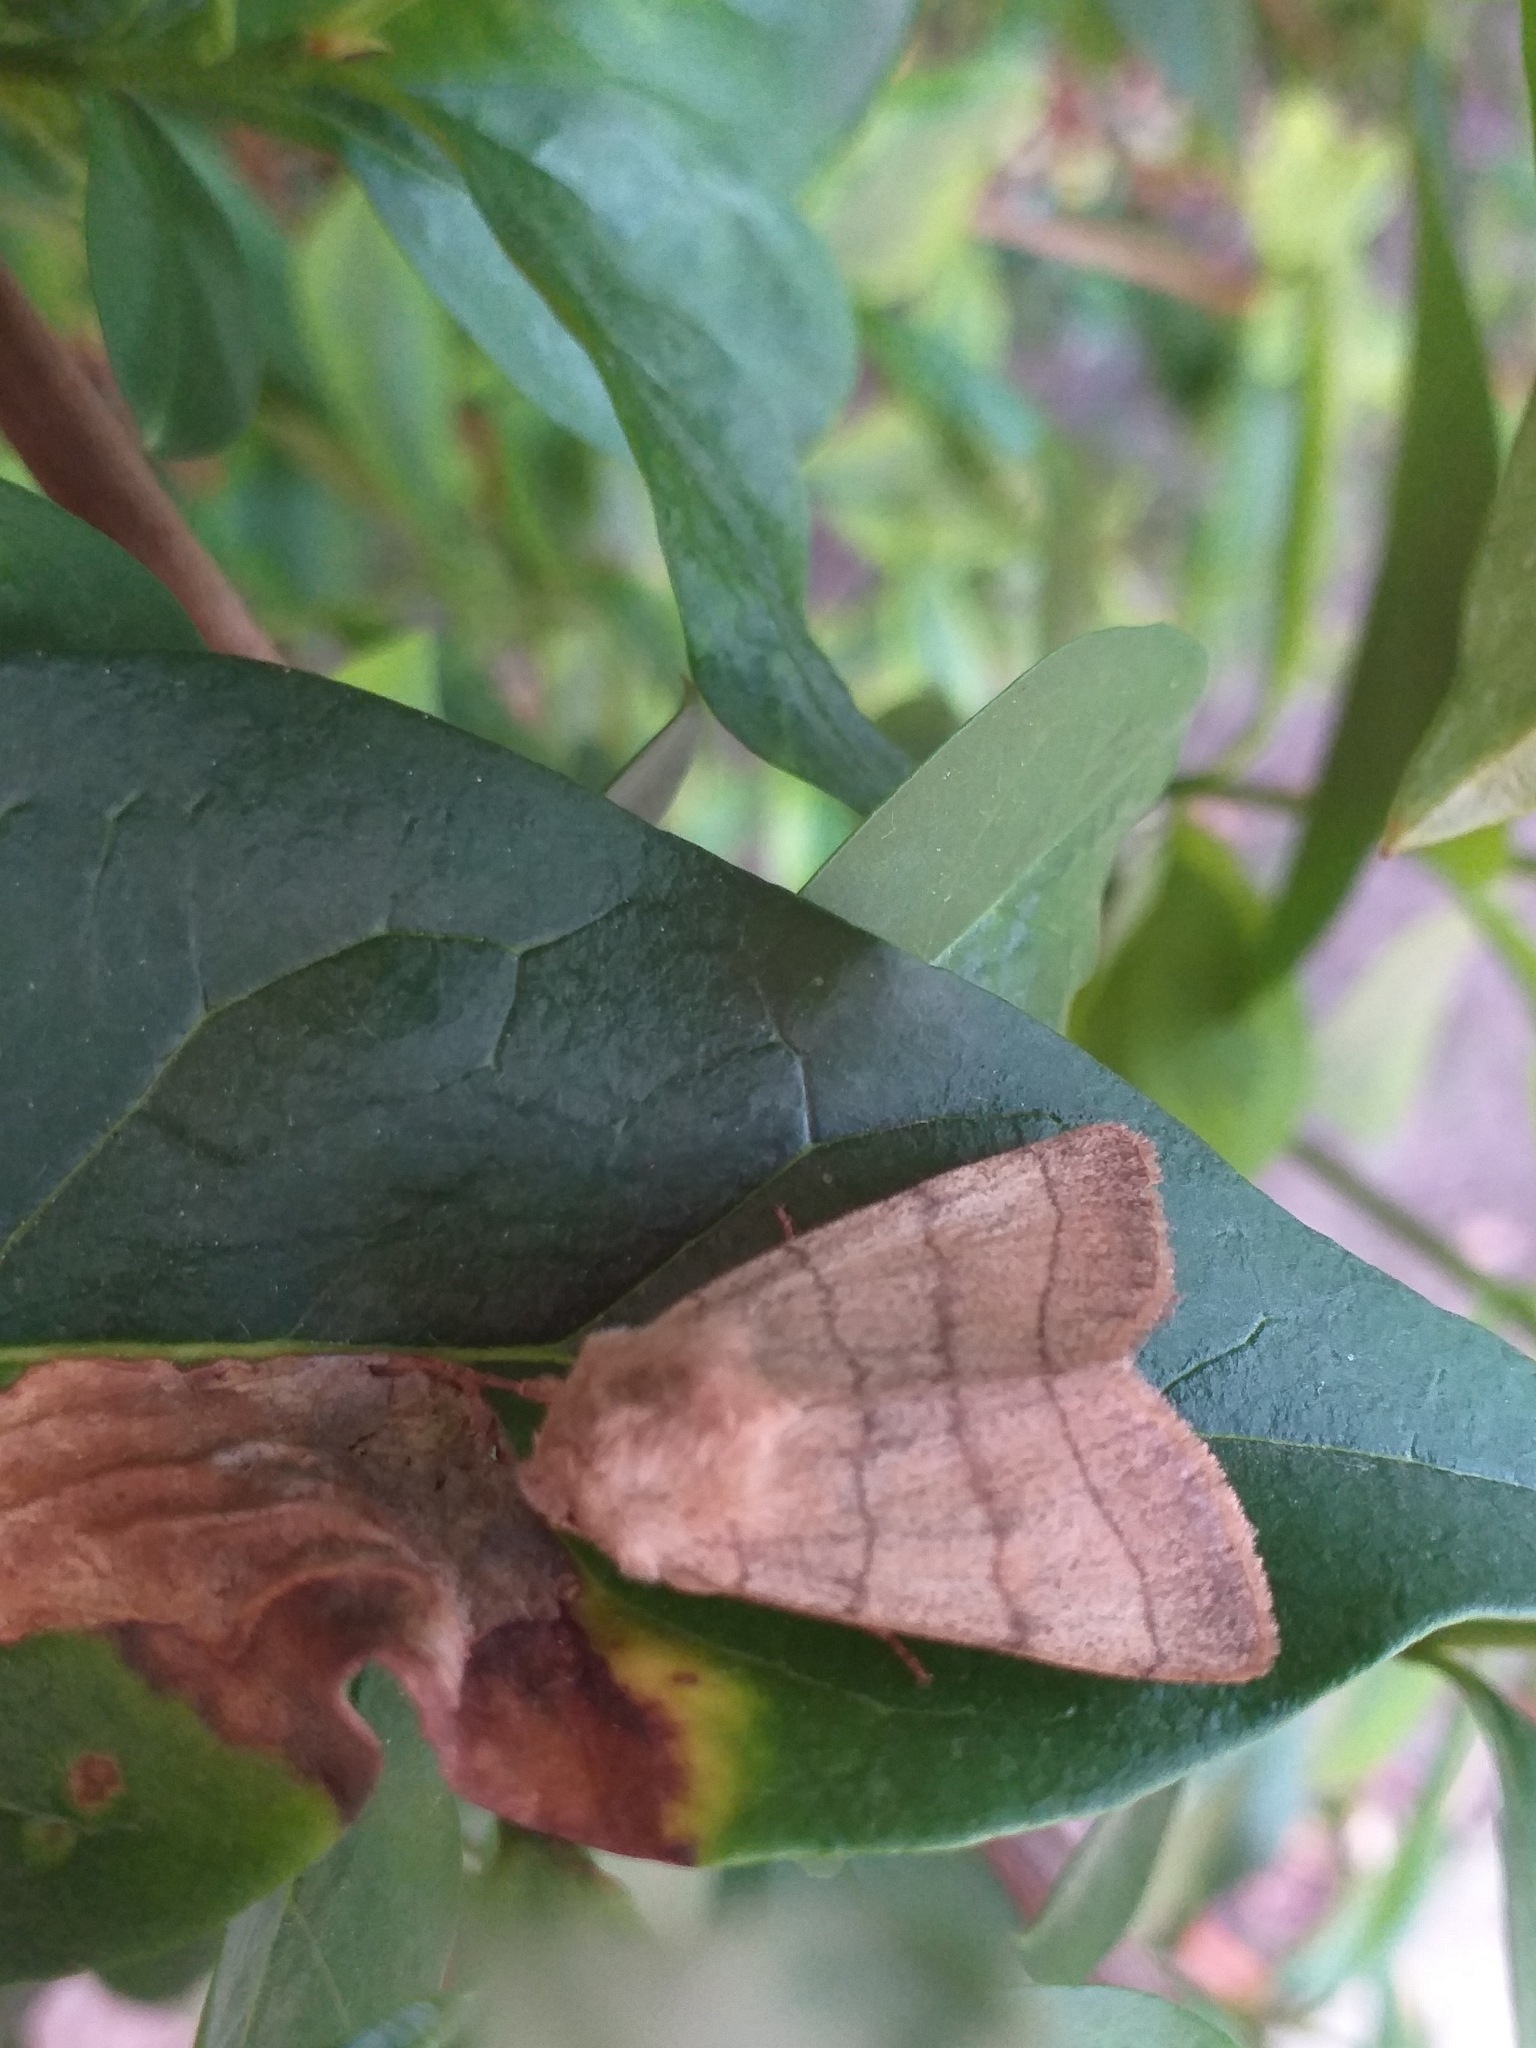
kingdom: Animalia
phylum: Arthropoda
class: Insecta
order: Lepidoptera
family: Noctuidae
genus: Charanyca
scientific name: Charanyca trigrammica
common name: Treble lines
